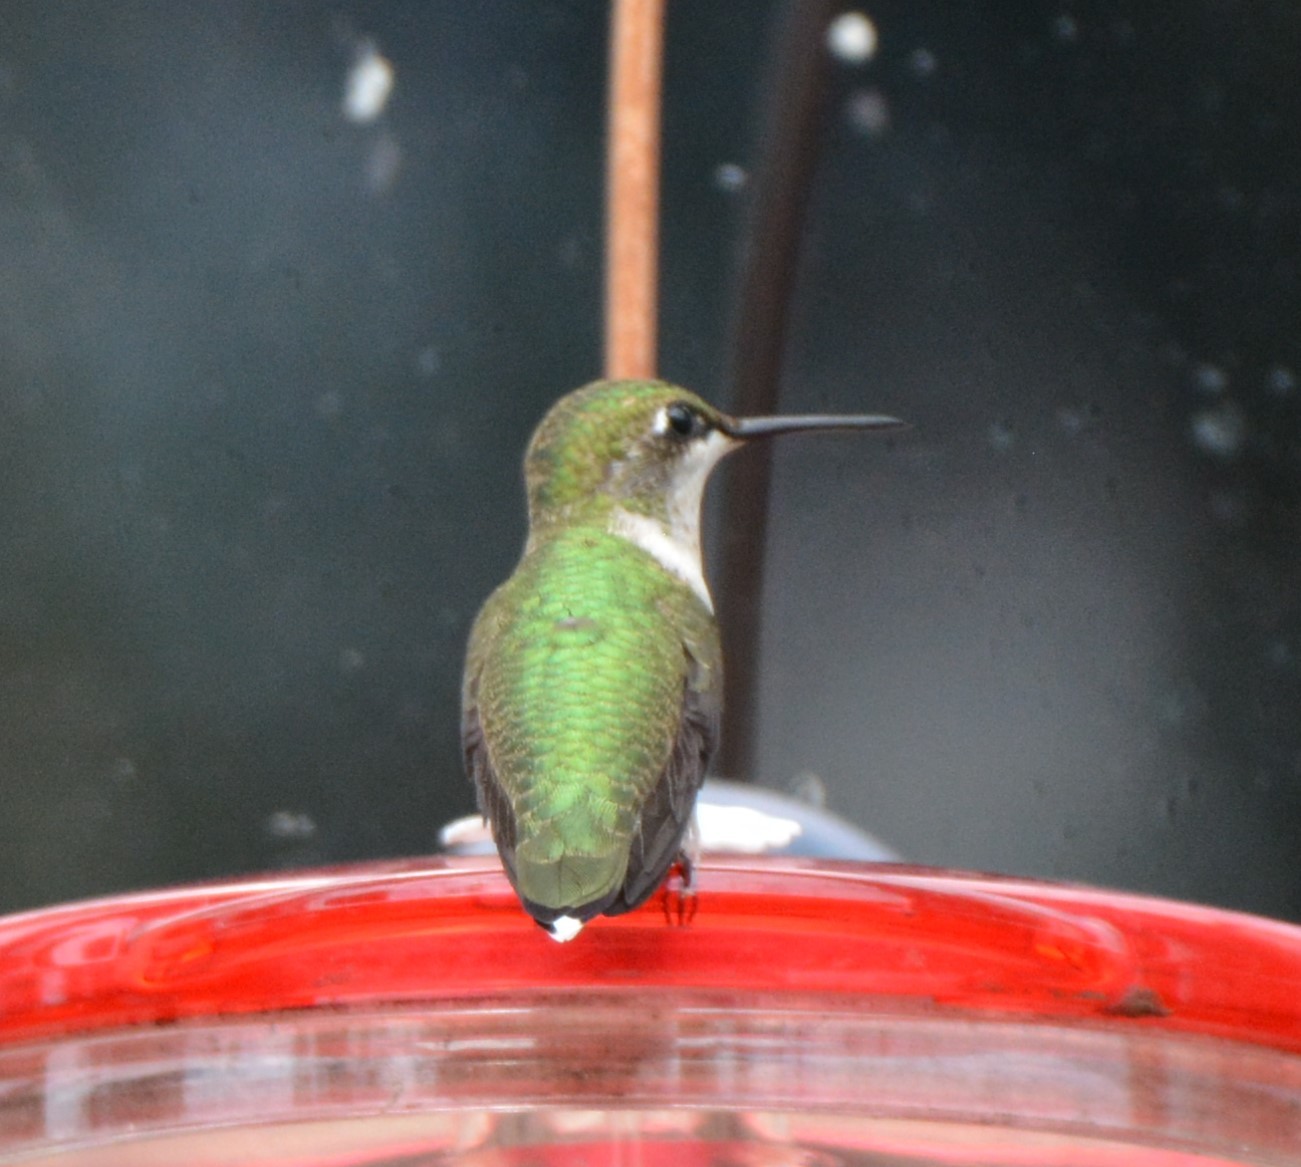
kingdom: Animalia
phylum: Chordata
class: Aves
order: Apodiformes
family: Trochilidae
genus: Archilochus
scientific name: Archilochus colubris
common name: Ruby-throated hummingbird
